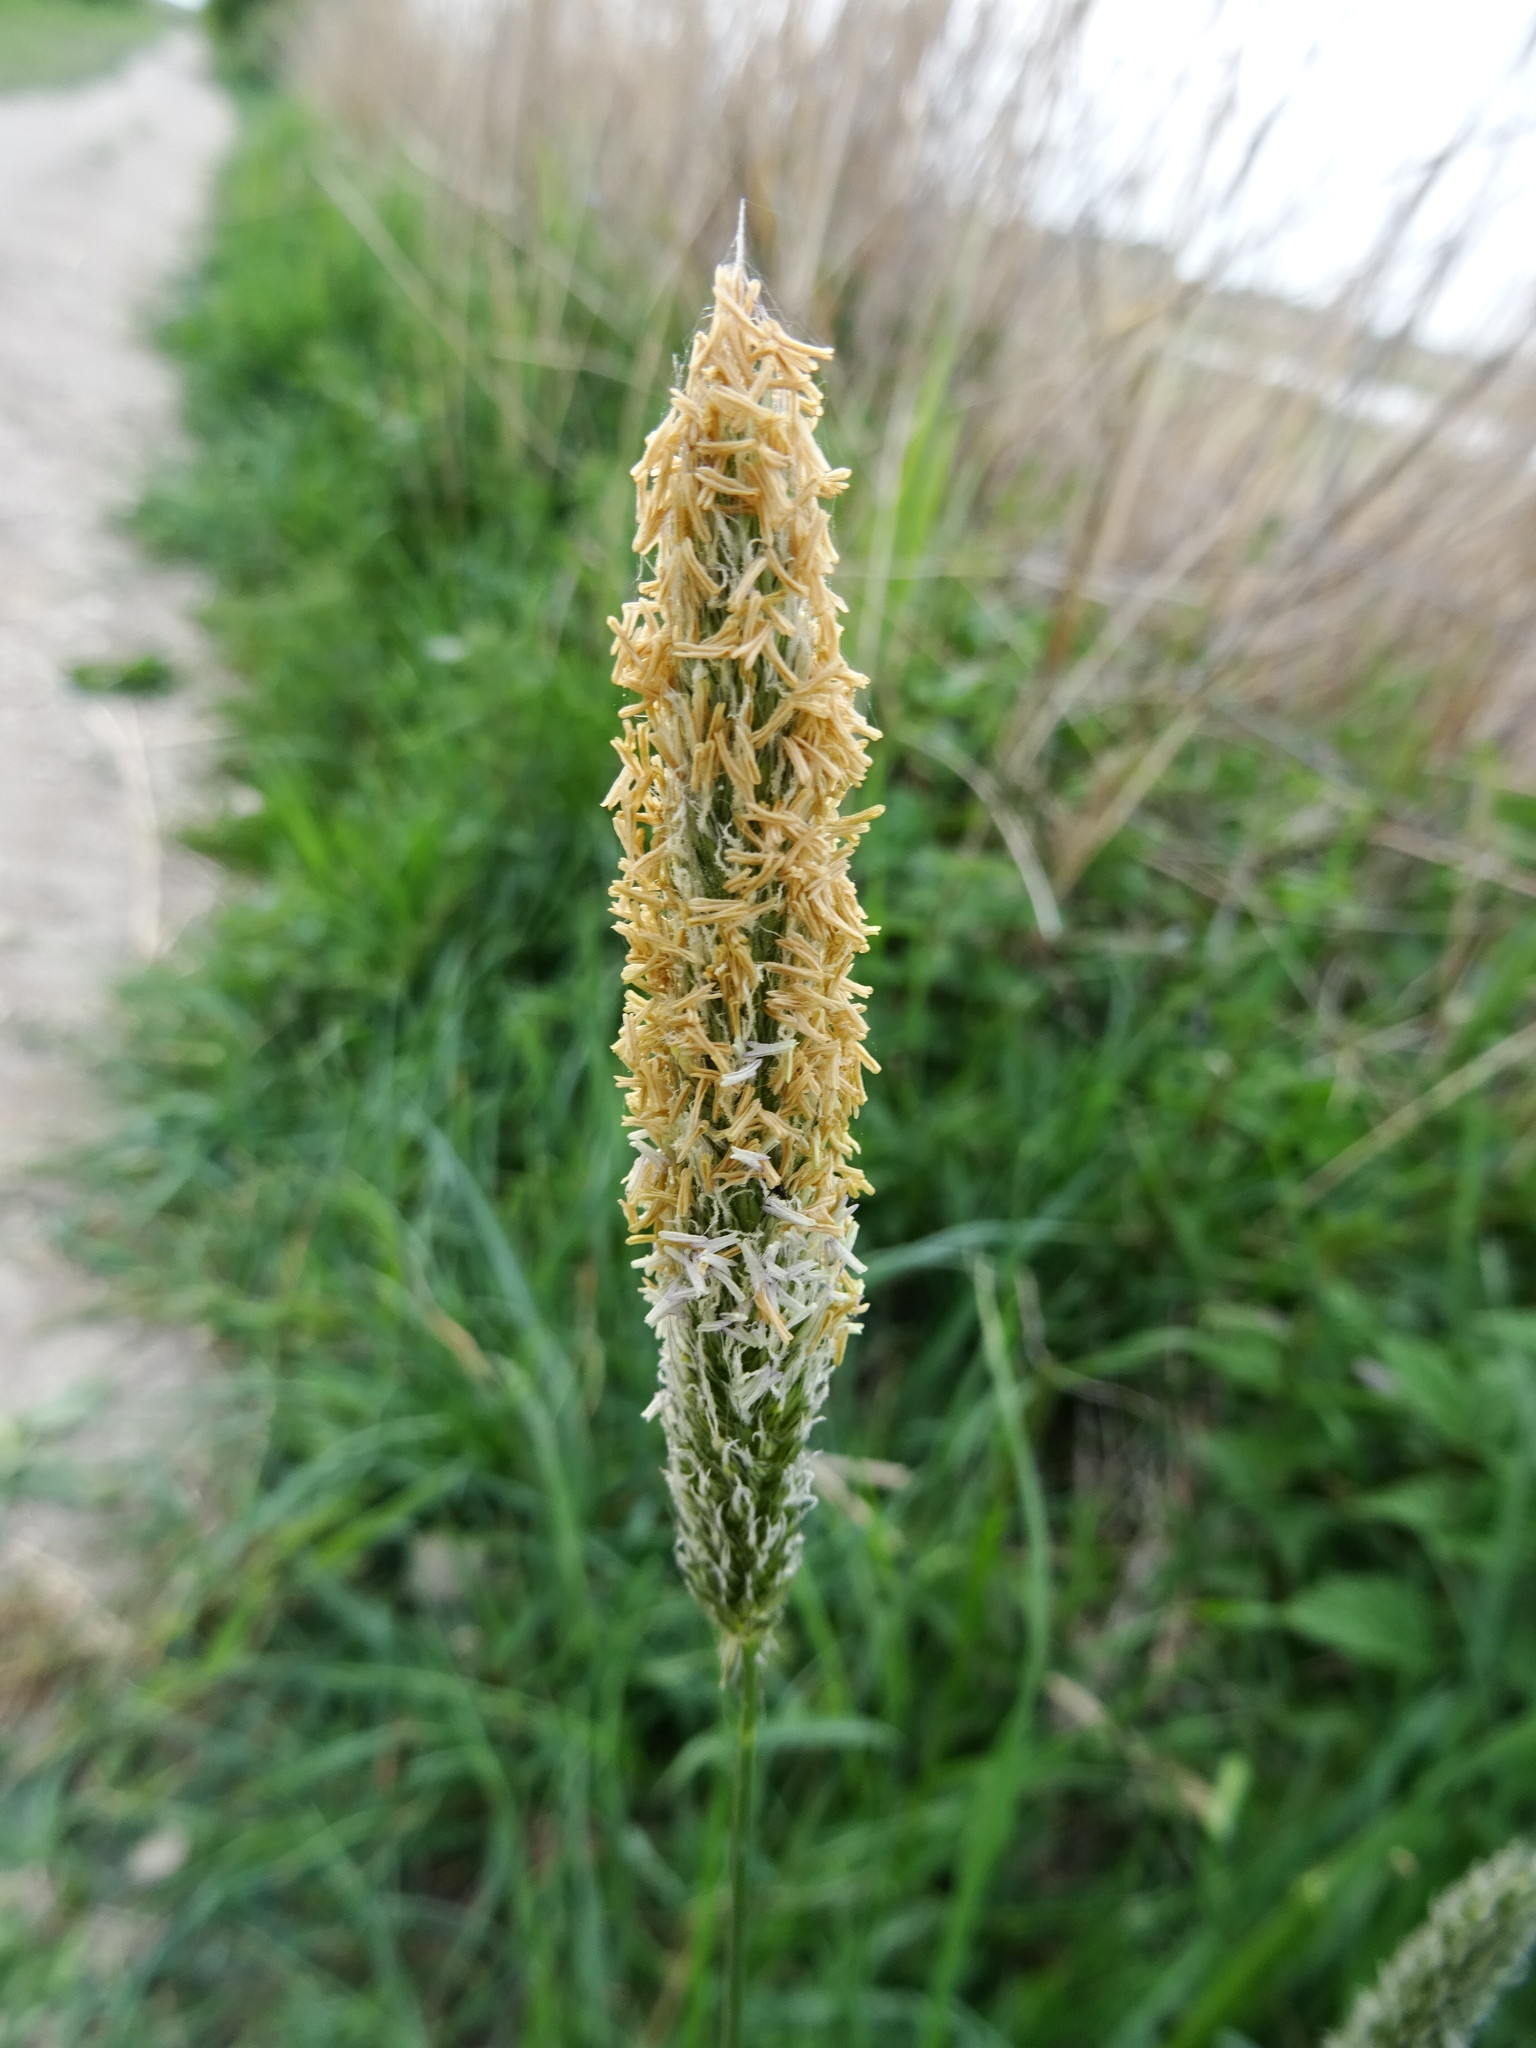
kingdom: Plantae
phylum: Tracheophyta
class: Liliopsida
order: Poales
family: Poaceae
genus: Alopecurus
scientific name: Alopecurus pratensis
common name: Meadow foxtail
